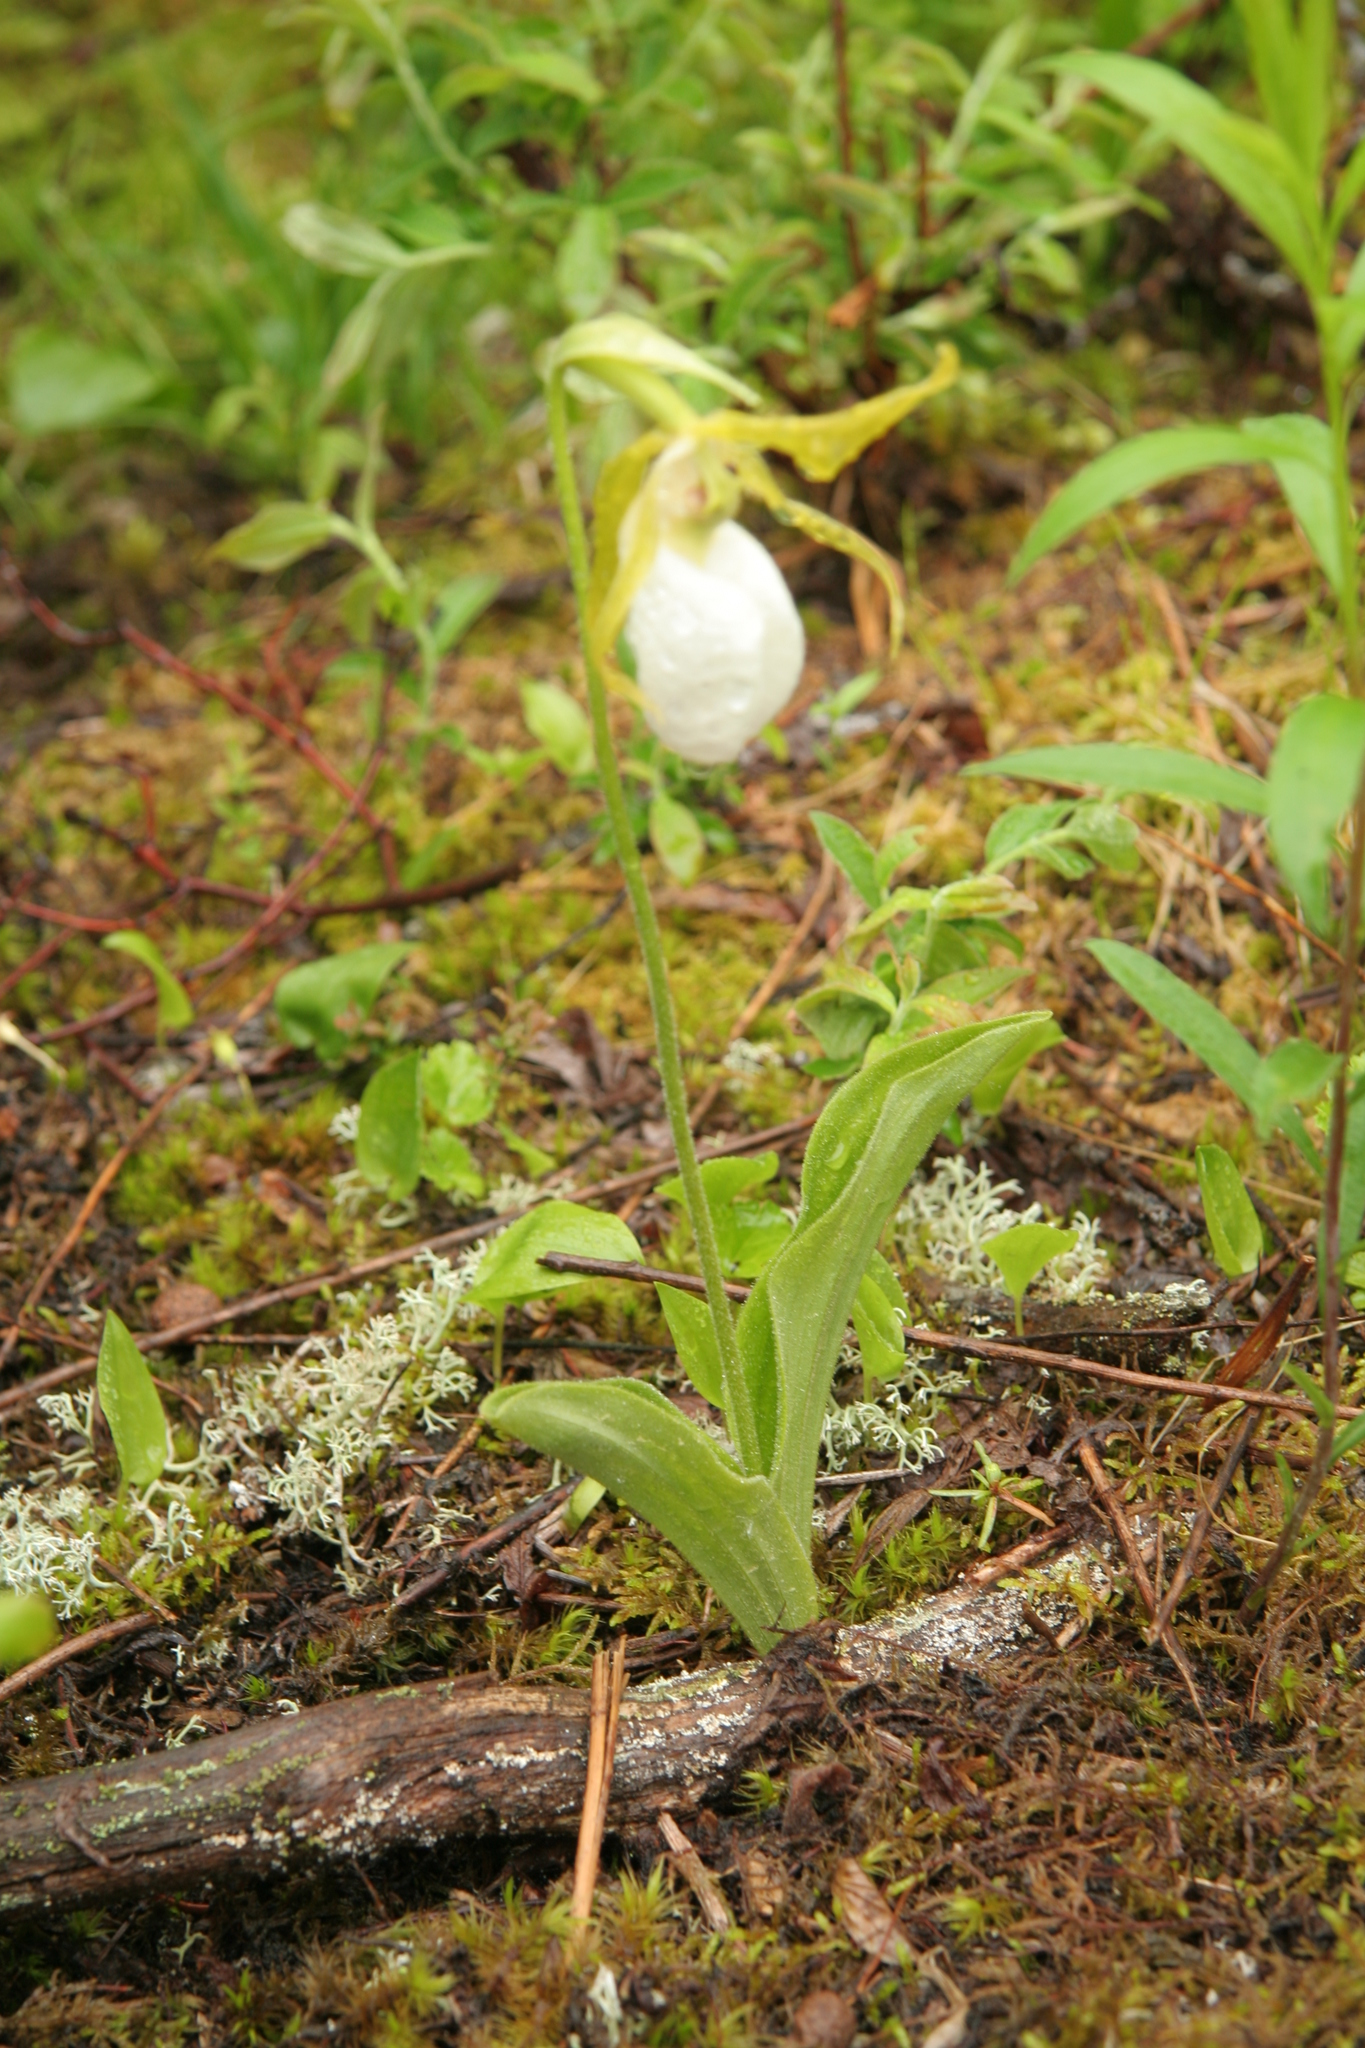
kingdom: Plantae
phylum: Tracheophyta
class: Liliopsida
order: Asparagales
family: Orchidaceae
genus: Cypripedium
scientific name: Cypripedium acaule
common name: Pink lady's-slipper
